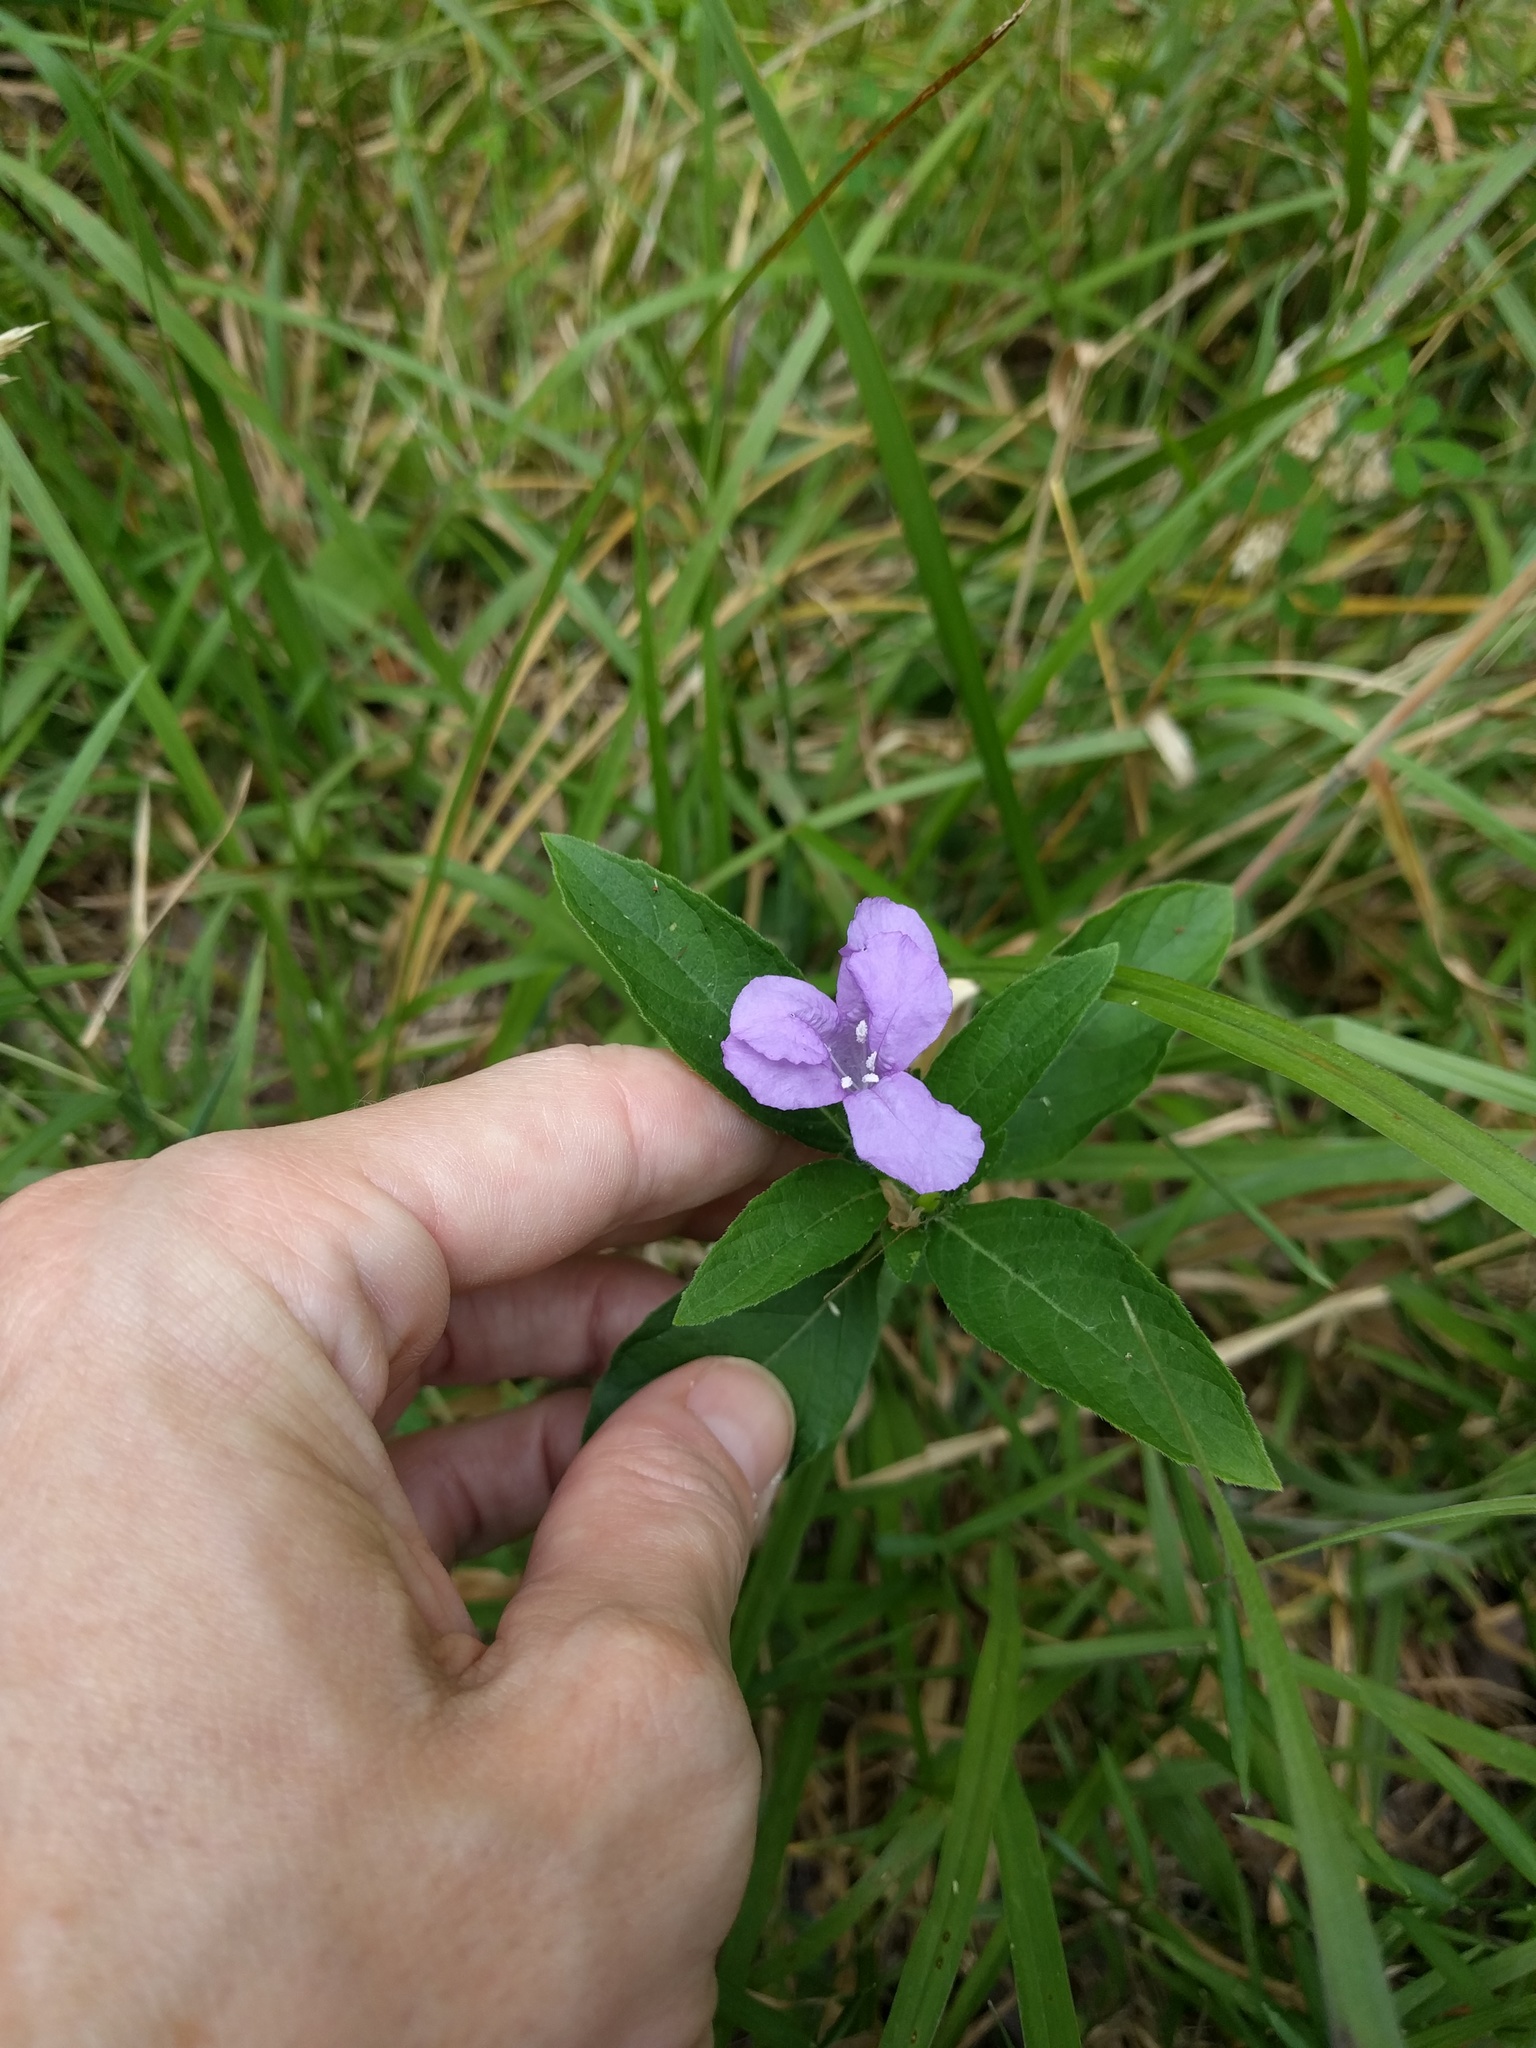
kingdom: Plantae
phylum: Tracheophyta
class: Magnoliopsida
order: Lamiales
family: Acanthaceae
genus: Ruellia
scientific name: Ruellia caroliniensis
